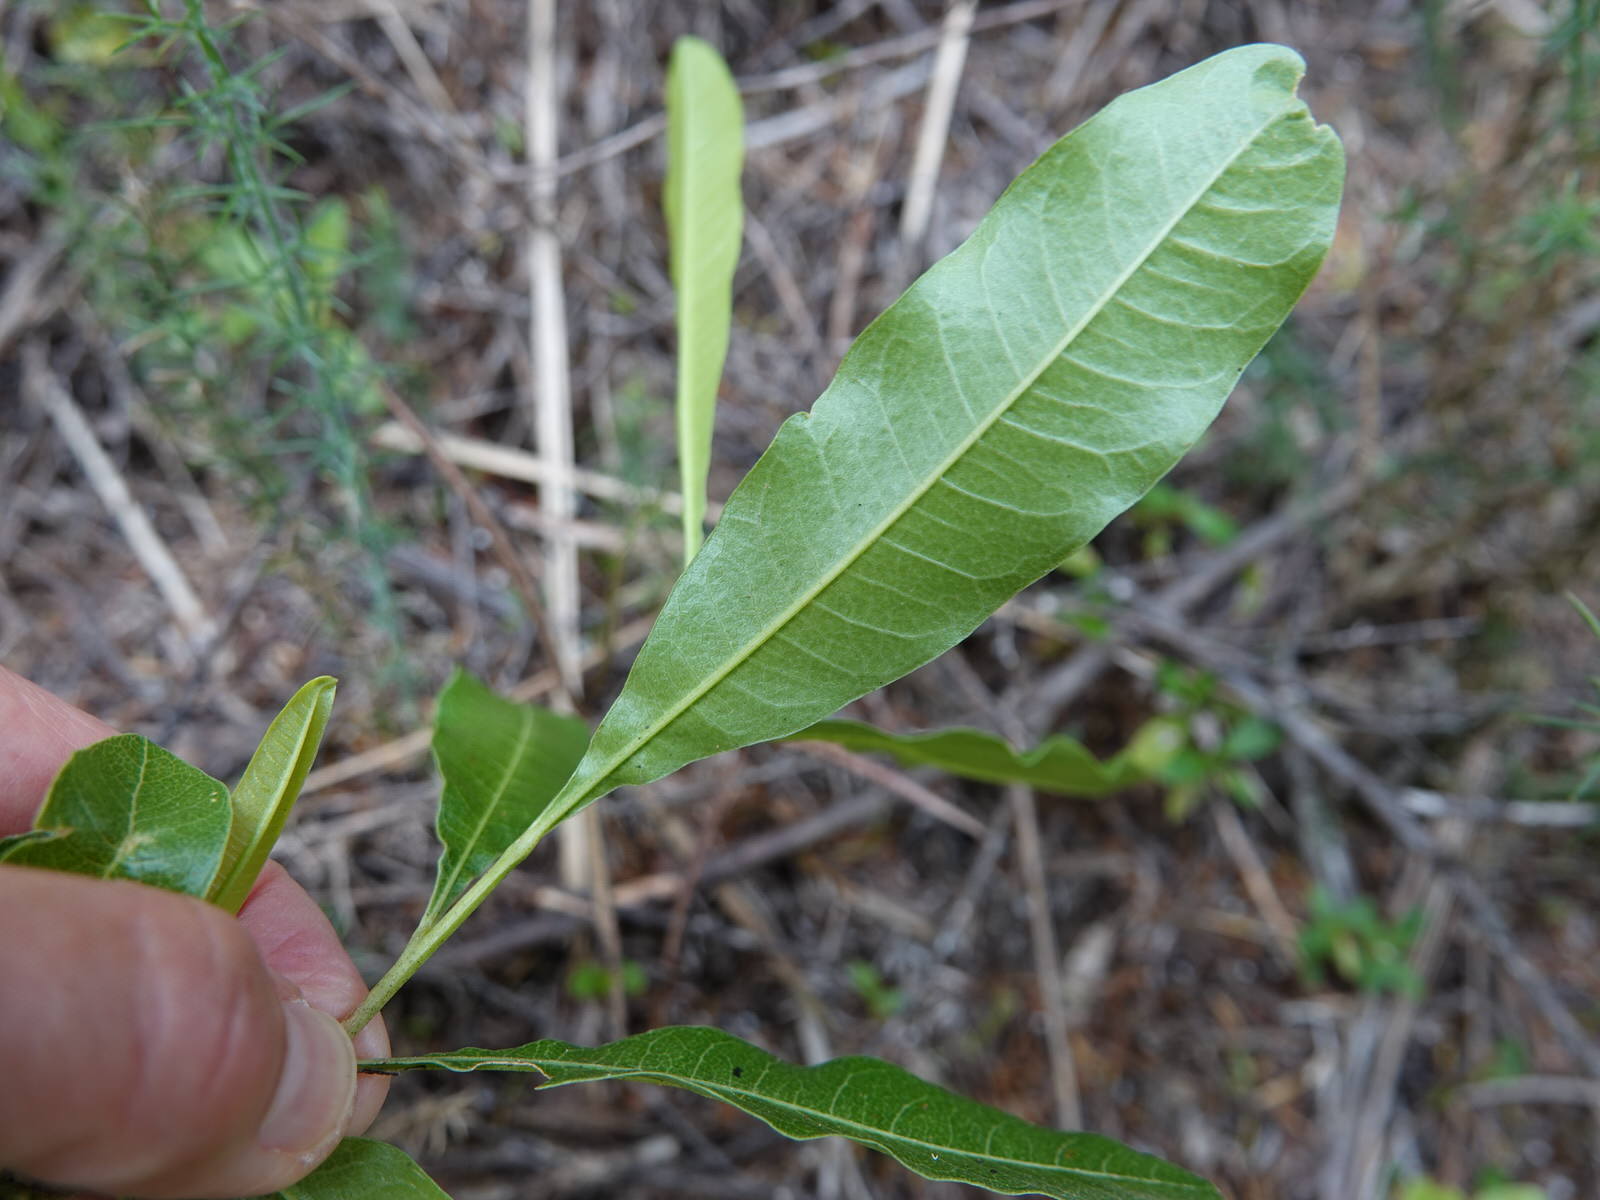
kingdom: Plantae
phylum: Tracheophyta
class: Magnoliopsida
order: Sapindales
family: Sapindaceae
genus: Dodonaea
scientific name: Dodonaea viscosa
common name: Hopbush
